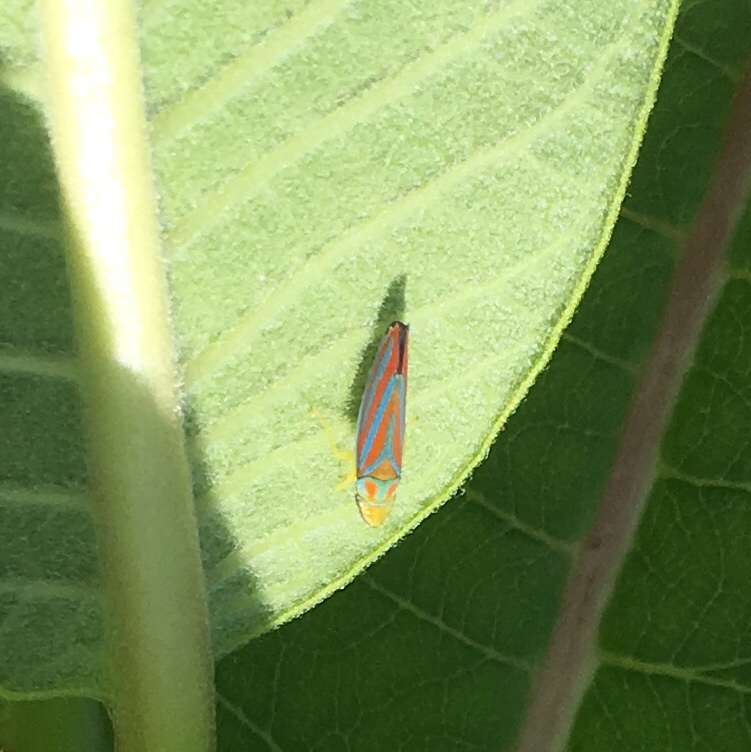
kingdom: Animalia
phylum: Arthropoda
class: Insecta
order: Hemiptera
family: Cicadellidae
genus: Graphocephala
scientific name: Graphocephala coccinea
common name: Candy-striped leafhopper
